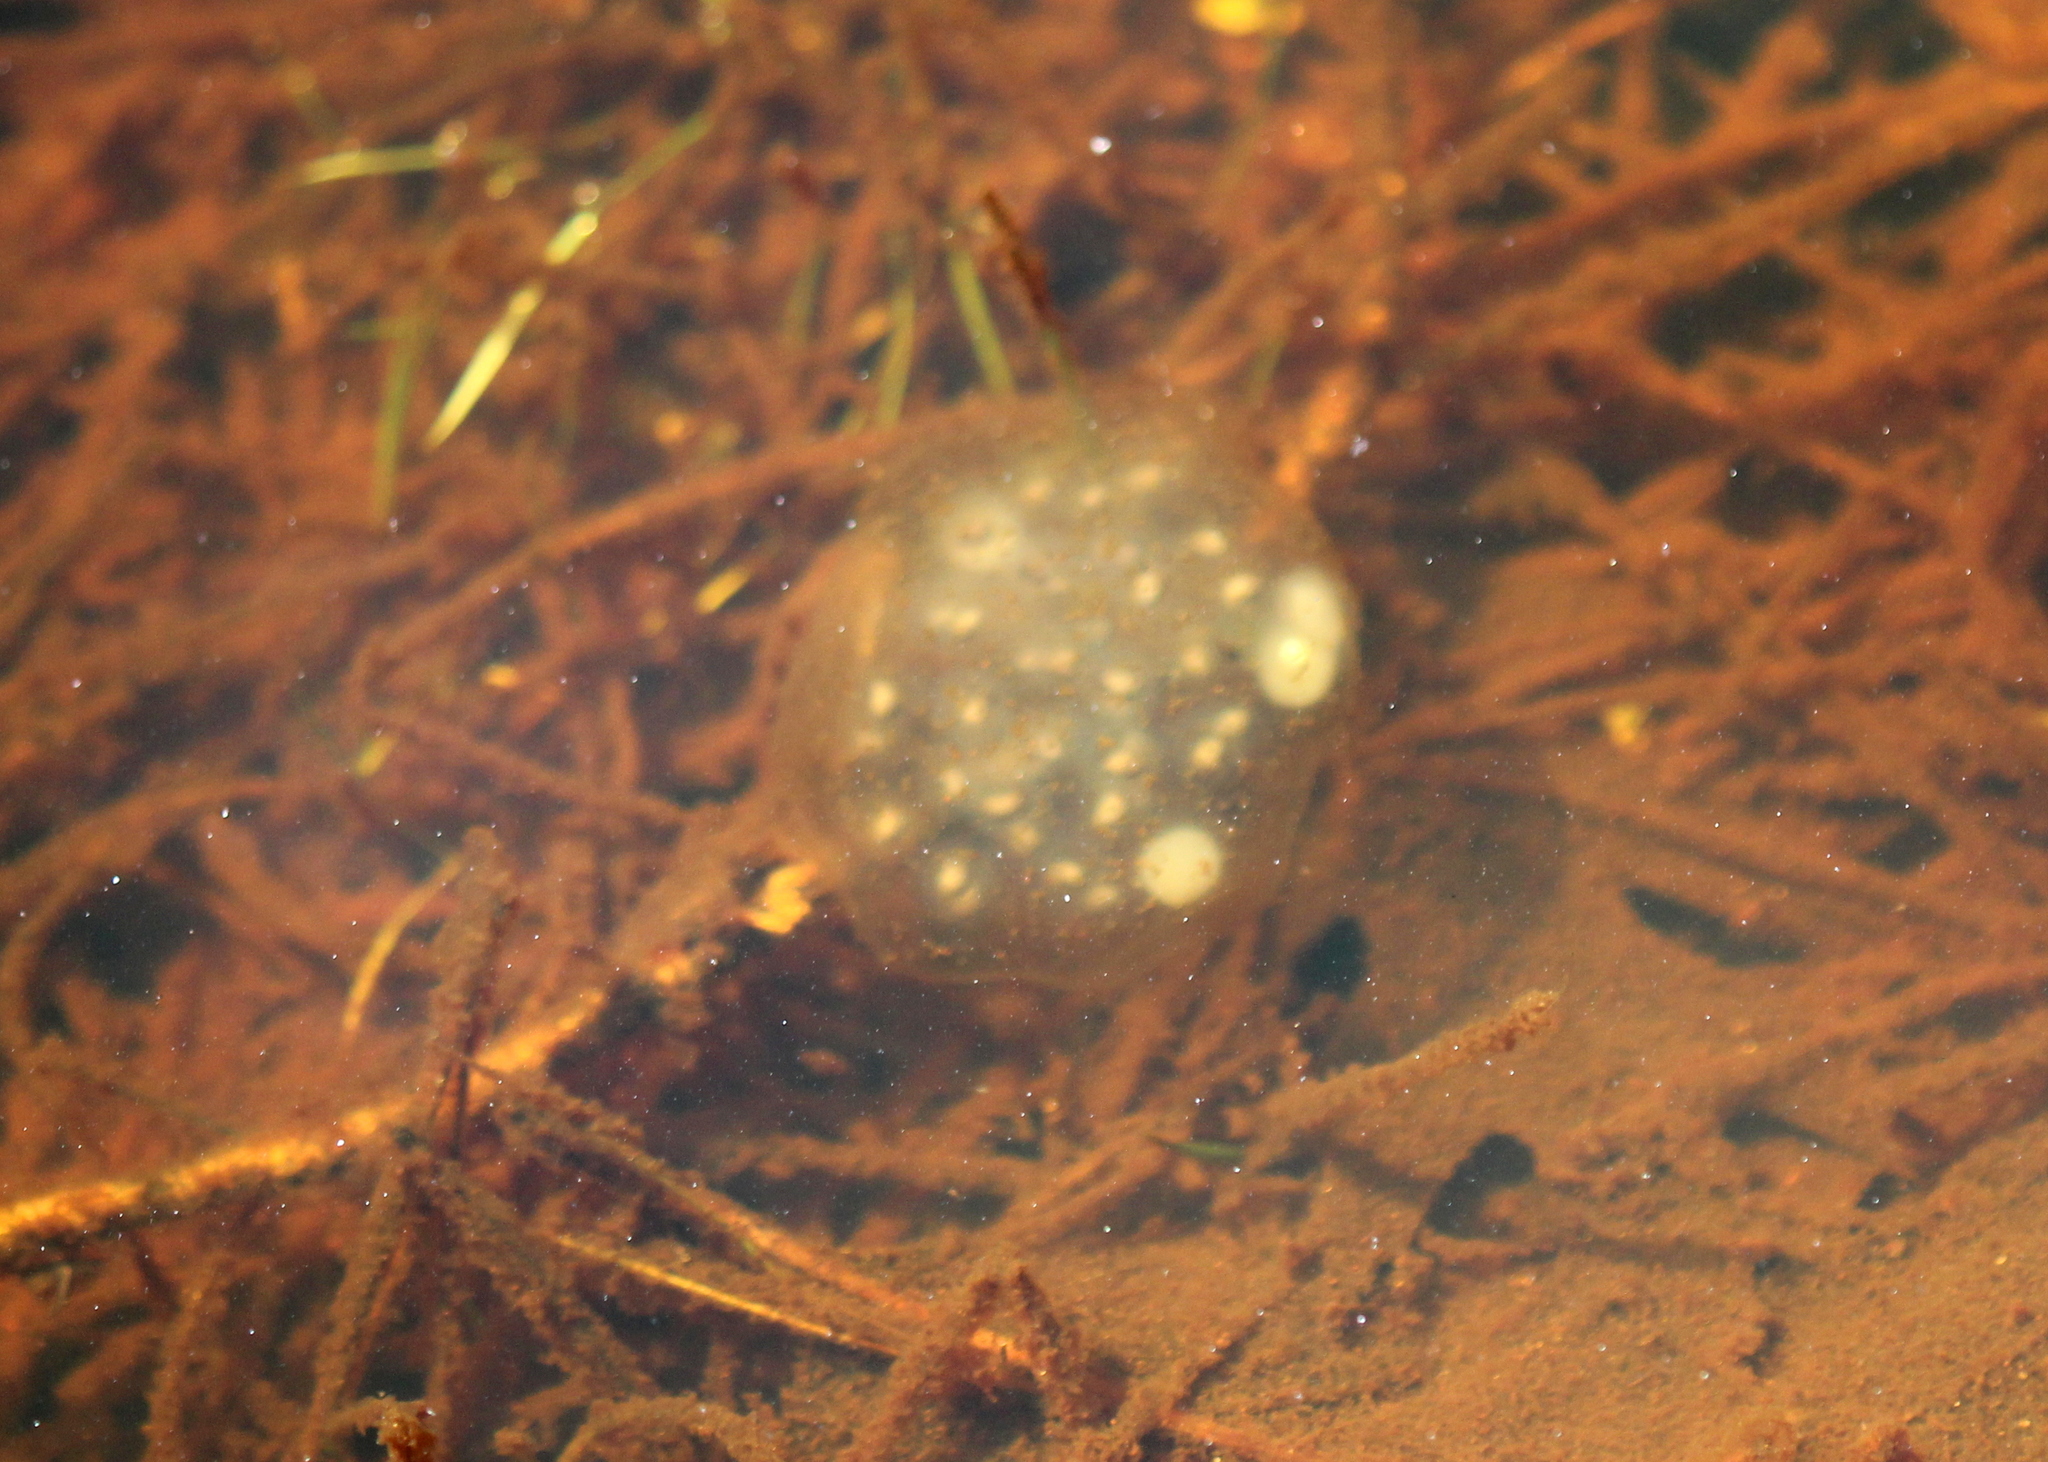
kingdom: Animalia
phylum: Chordata
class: Amphibia
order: Caudata
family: Ambystomatidae
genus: Ambystoma
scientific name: Ambystoma maculatum
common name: Spotted salamander
